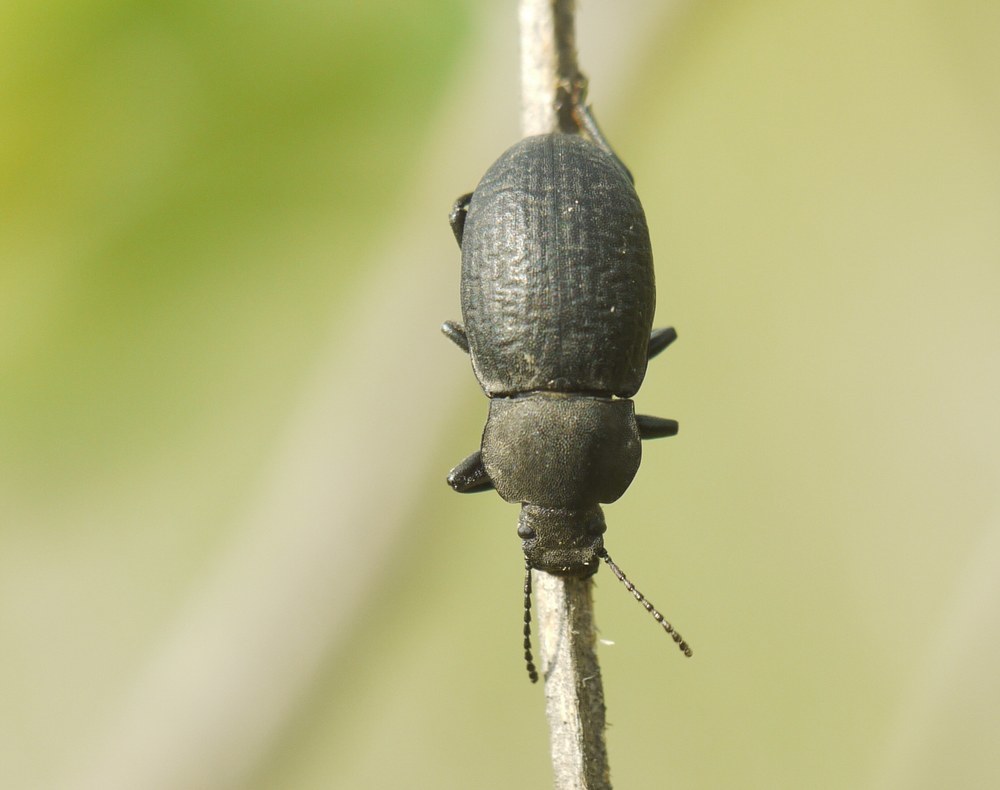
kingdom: Animalia
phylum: Arthropoda
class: Insecta
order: Coleoptera
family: Tenebrionidae
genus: Euboeus
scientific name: Euboeus
